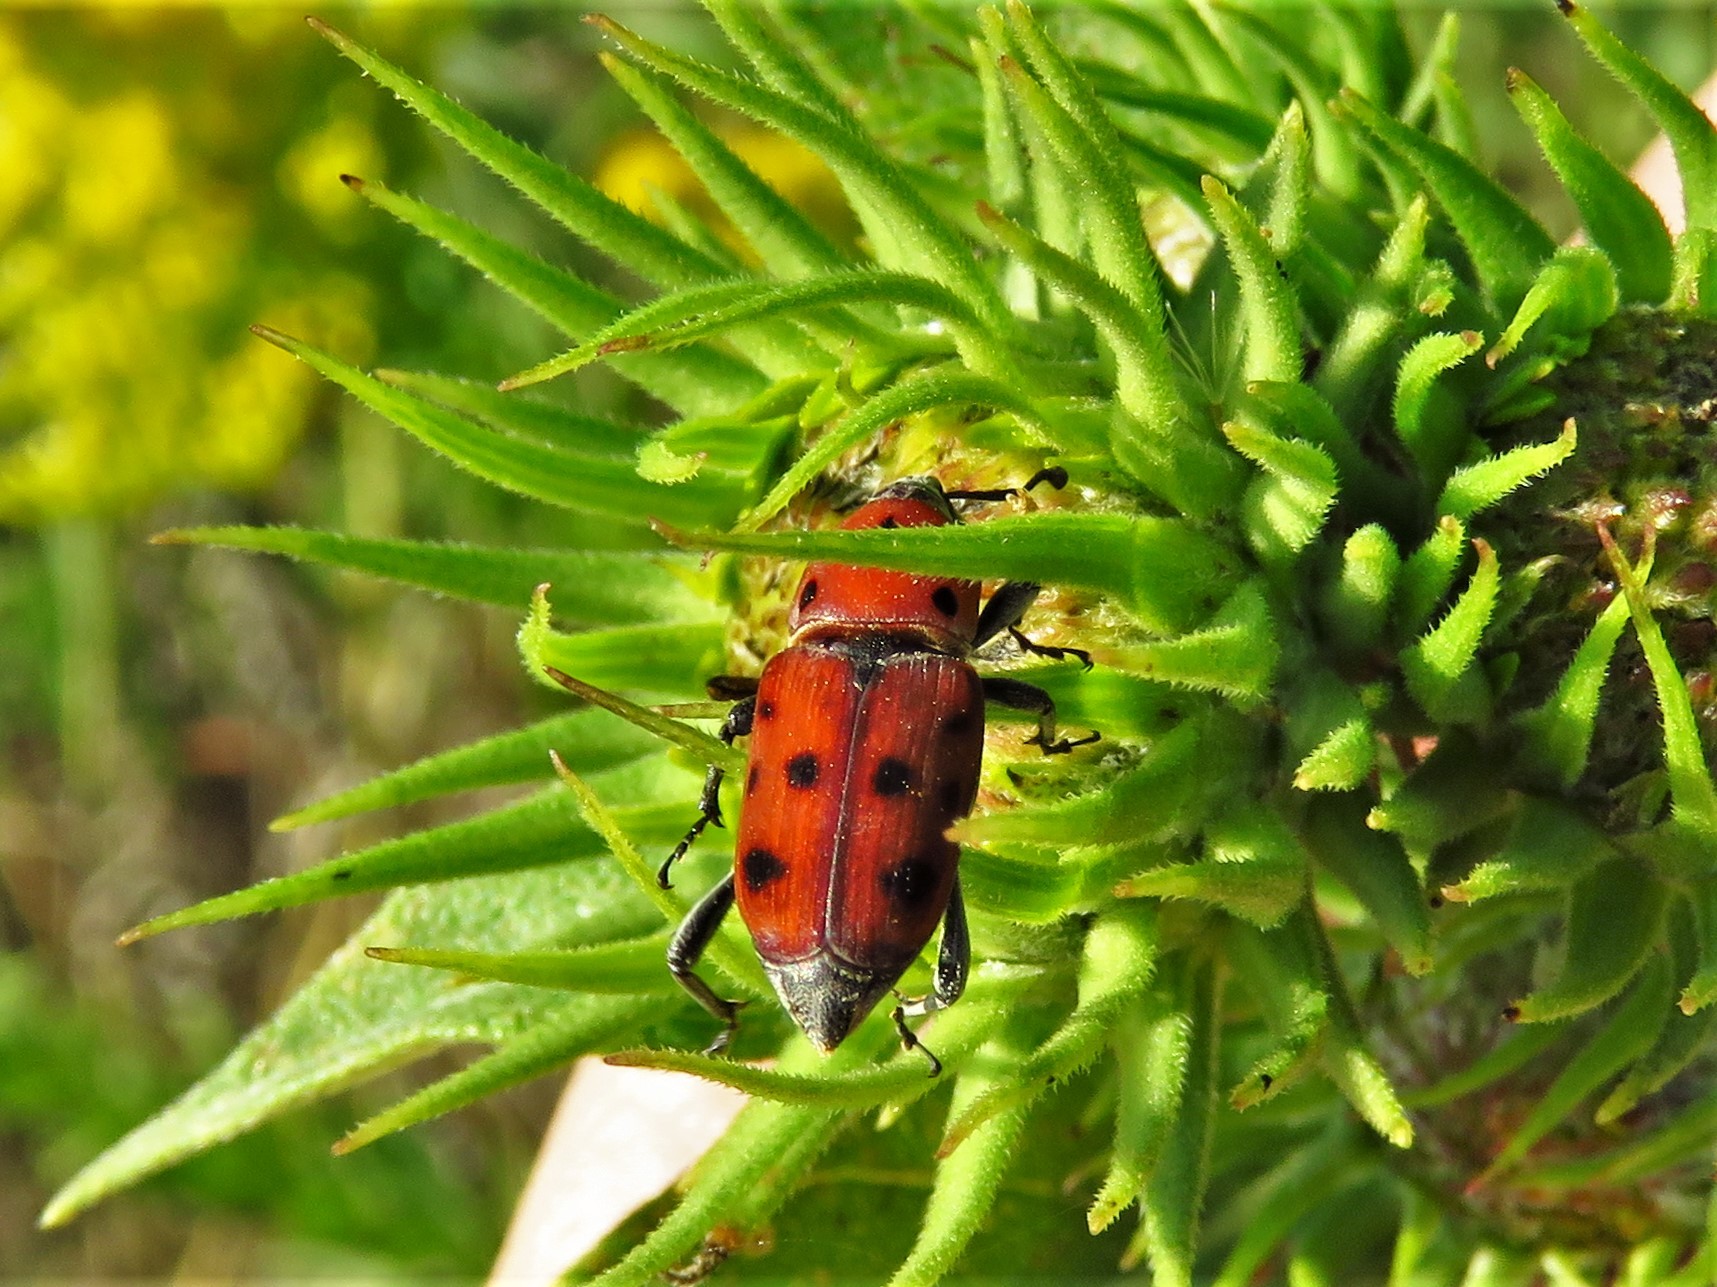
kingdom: Animalia
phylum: Arthropoda
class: Insecta
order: Coleoptera
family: Dryophthoridae
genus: Rhodobaenus
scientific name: Rhodobaenus tredecimpunctatus
